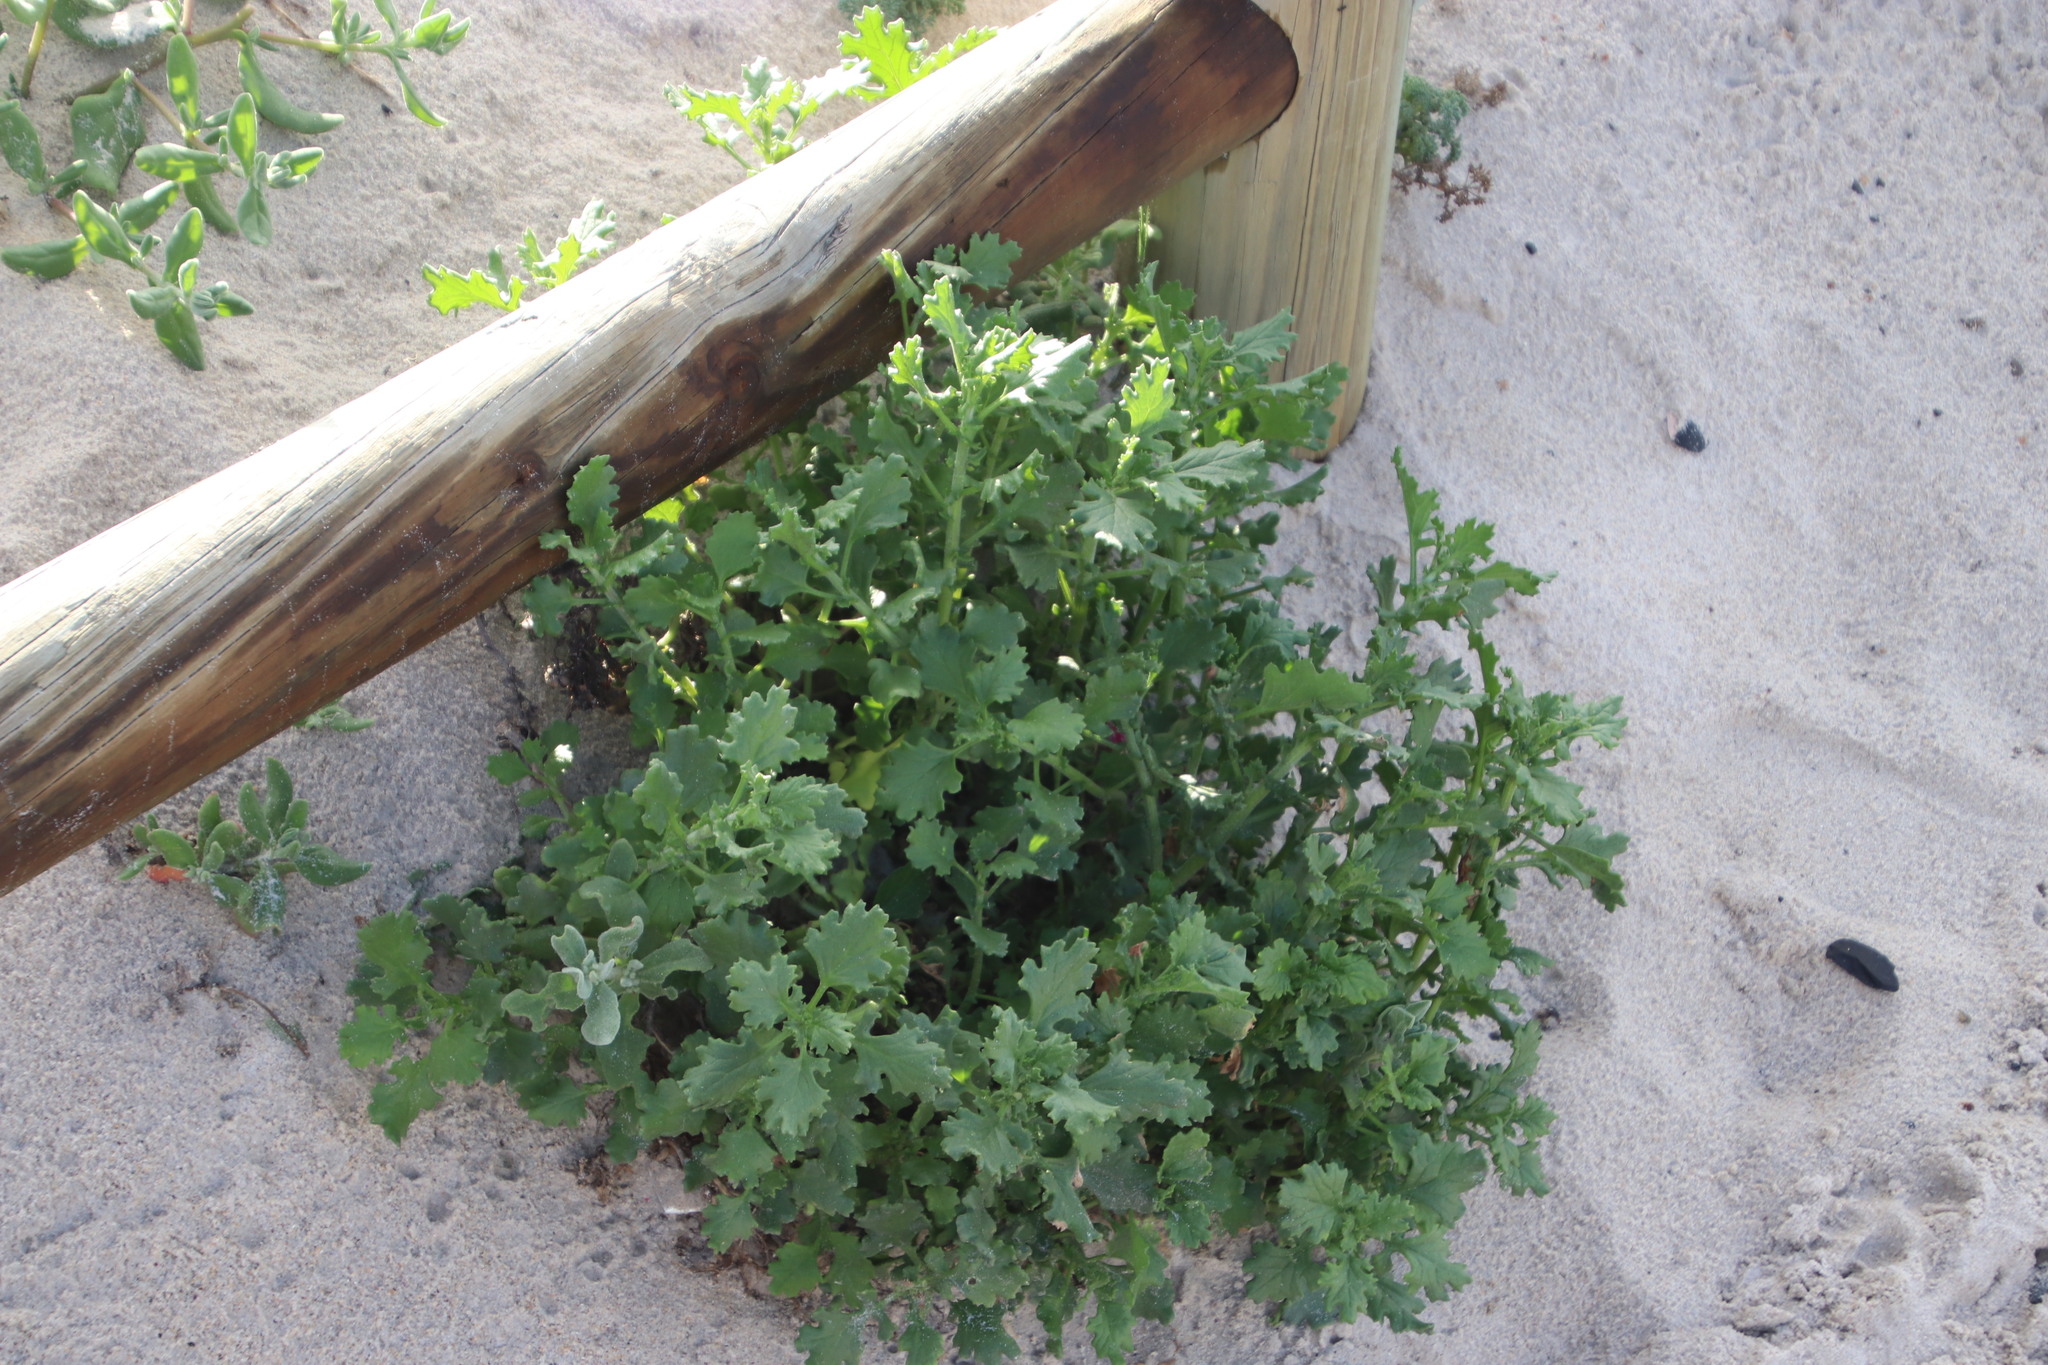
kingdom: Plantae
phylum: Tracheophyta
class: Magnoliopsida
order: Asterales
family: Asteraceae
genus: Senecio
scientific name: Senecio elegans
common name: Purple groundsel
